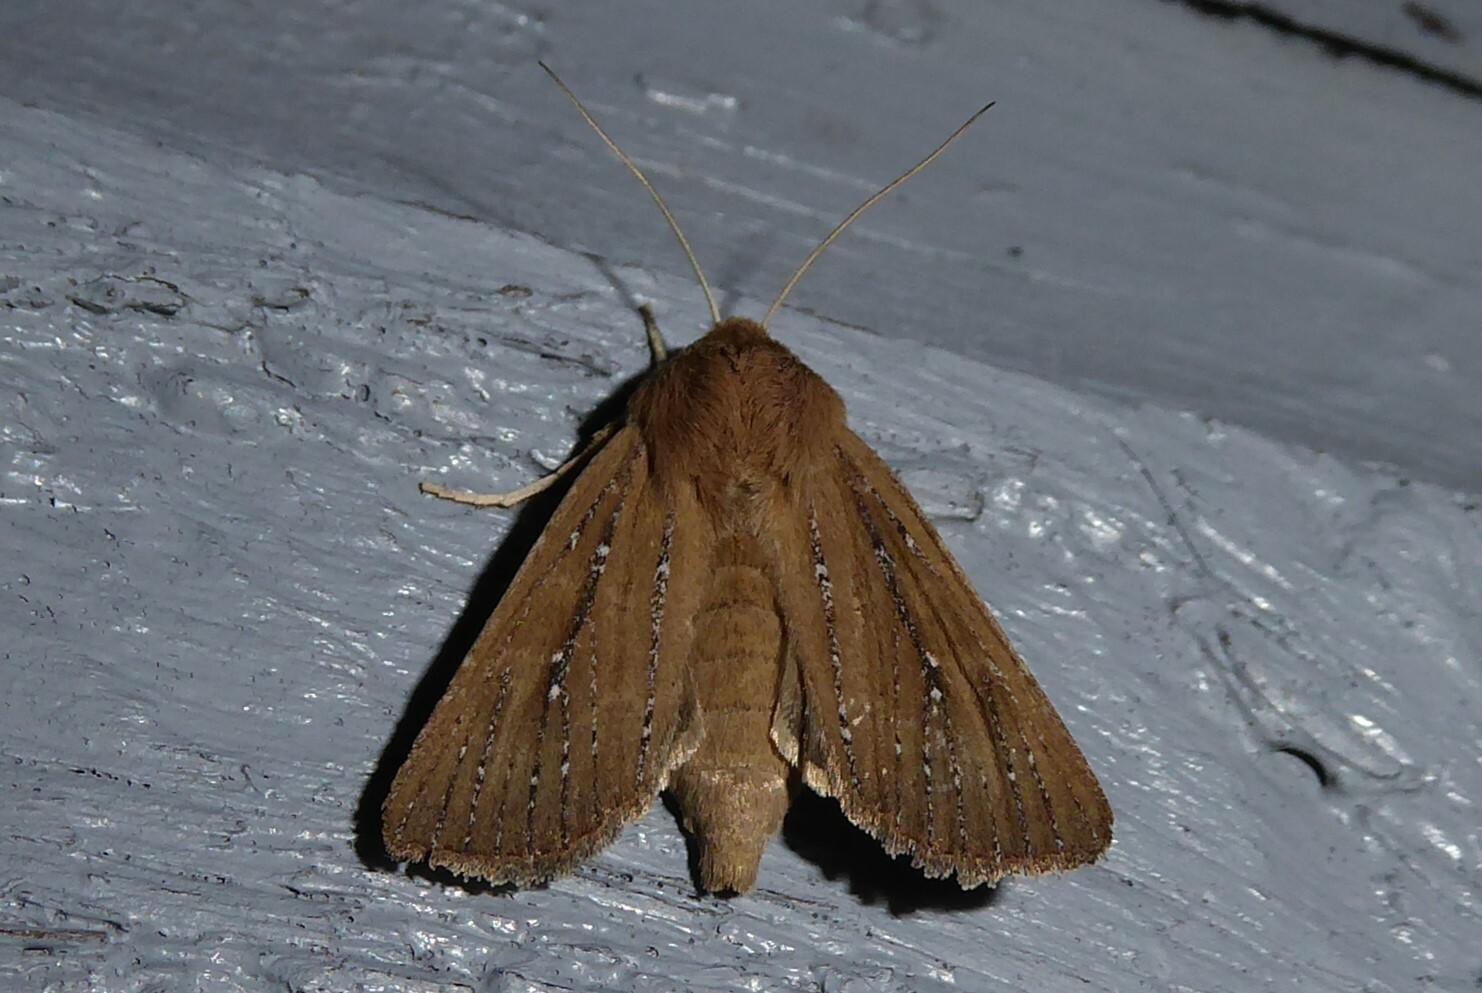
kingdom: Animalia
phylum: Arthropoda
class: Insecta
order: Lepidoptera
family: Noctuidae
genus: Ichneutica
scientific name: Ichneutica
